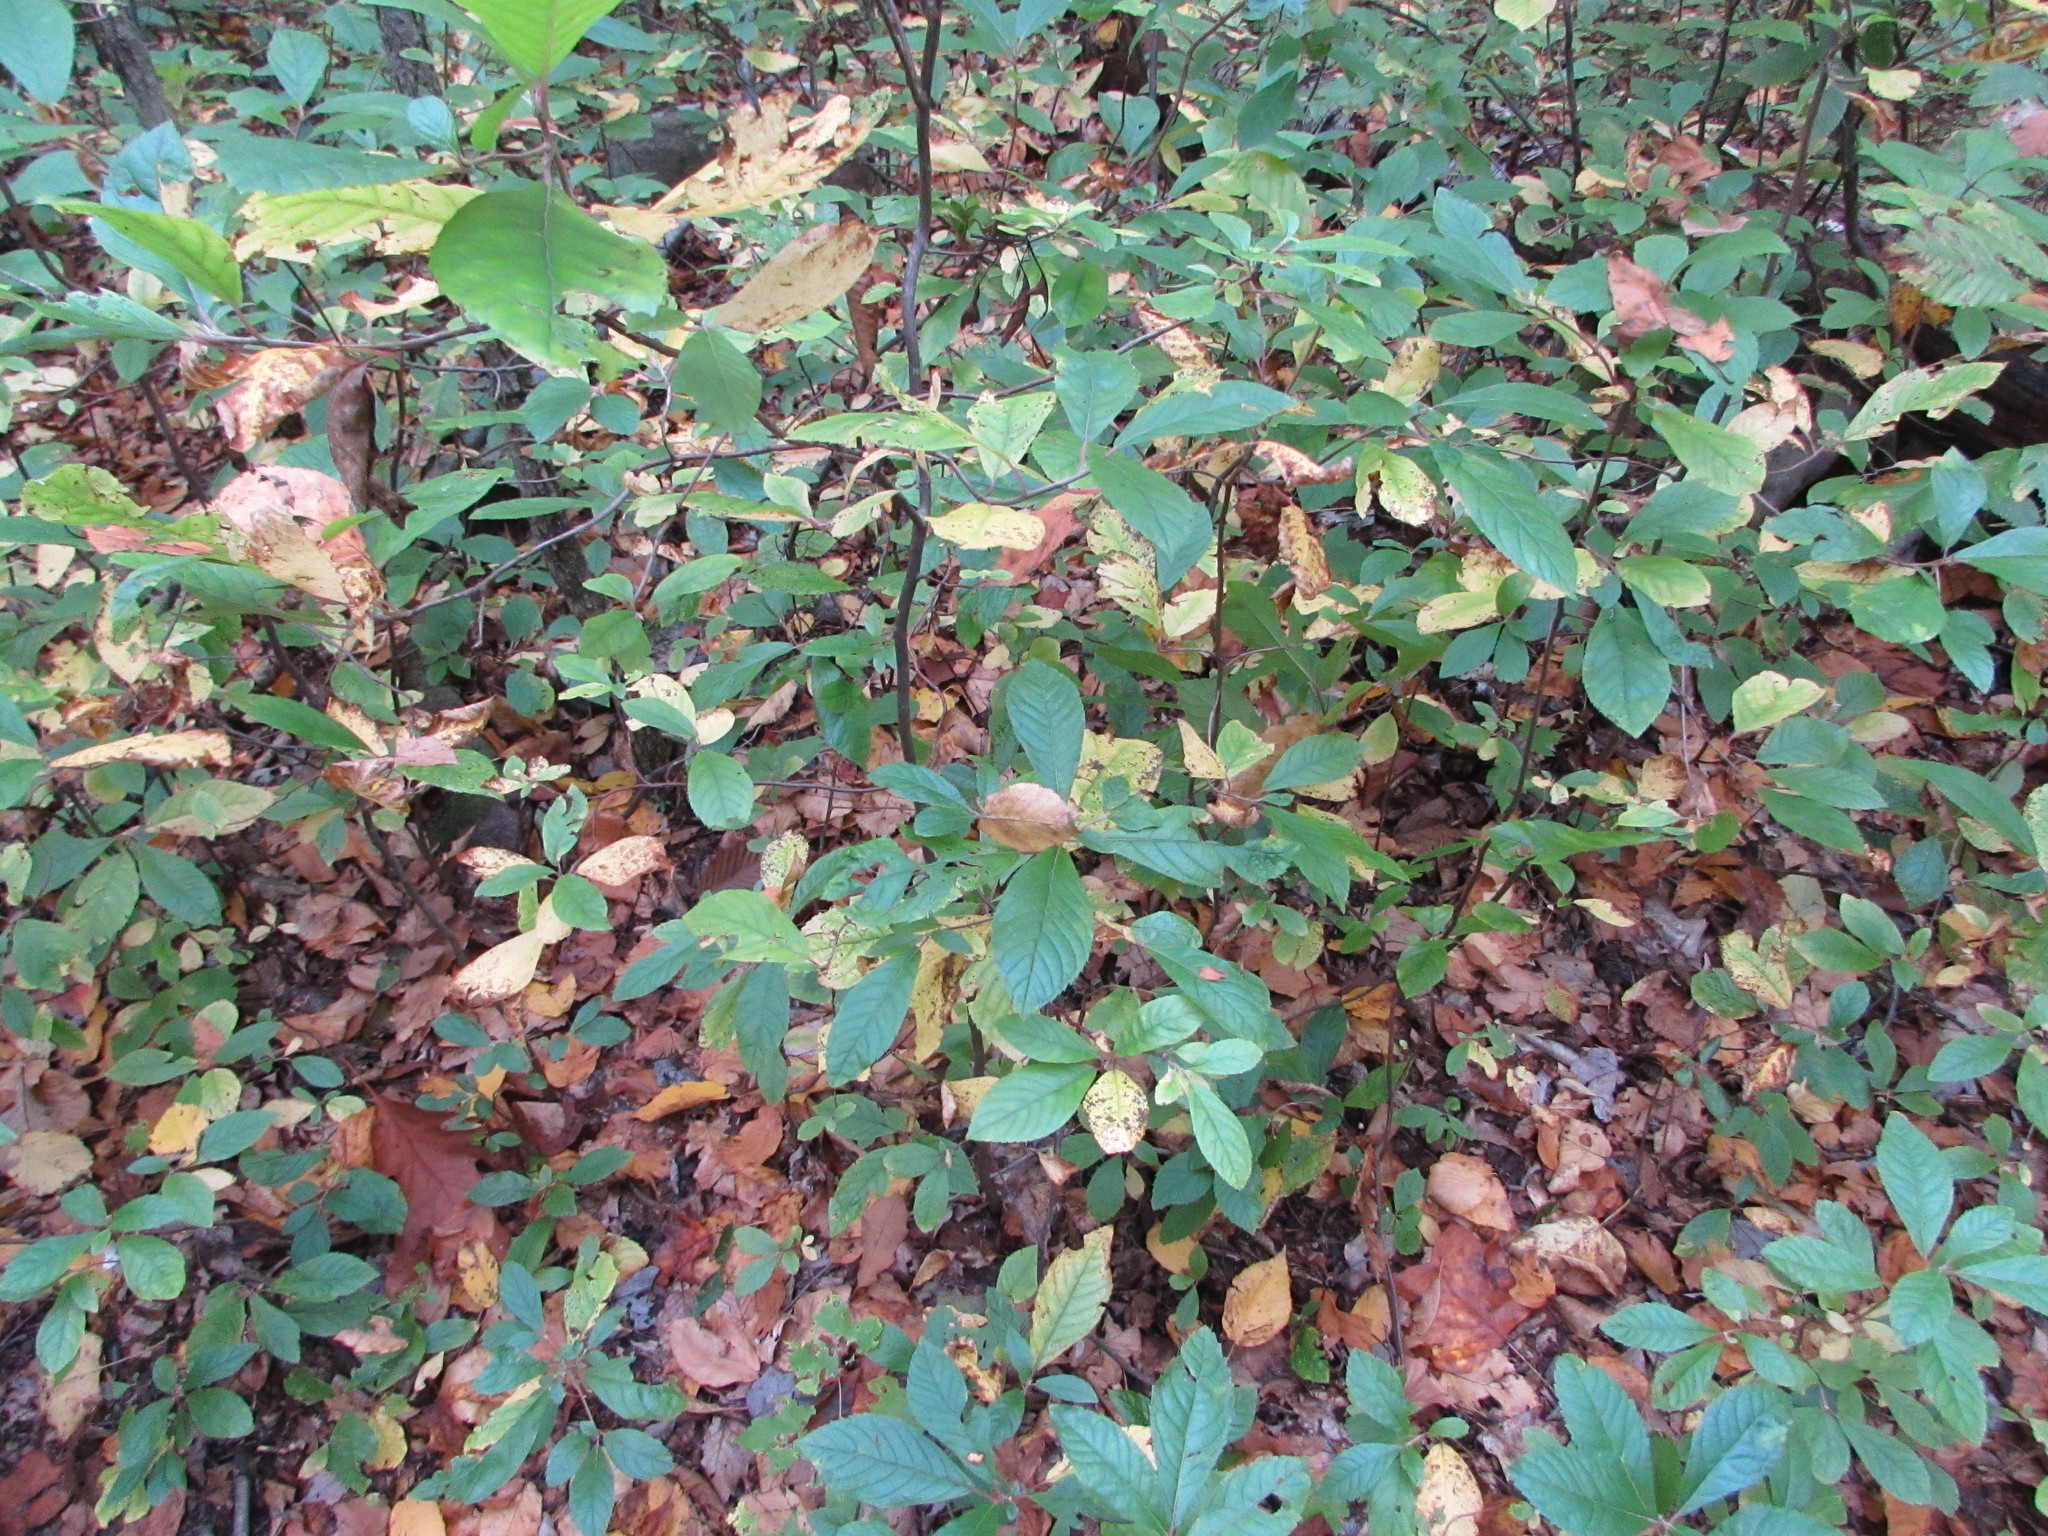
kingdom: Plantae
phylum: Tracheophyta
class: Magnoliopsida
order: Ericales
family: Clethraceae
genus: Clethra
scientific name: Clethra alnifolia
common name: Sweet pepperbush
